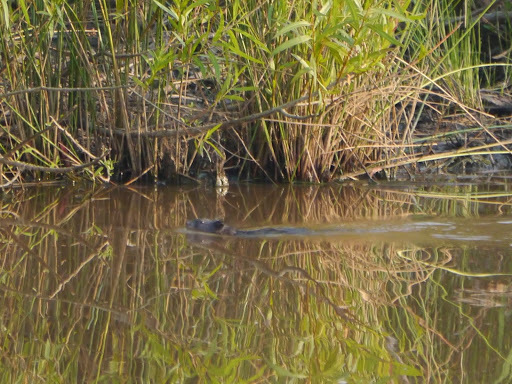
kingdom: Animalia
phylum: Chordata
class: Mammalia
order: Rodentia
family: Cricetidae
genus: Ondatra
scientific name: Ondatra zibethicus
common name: Muskrat
